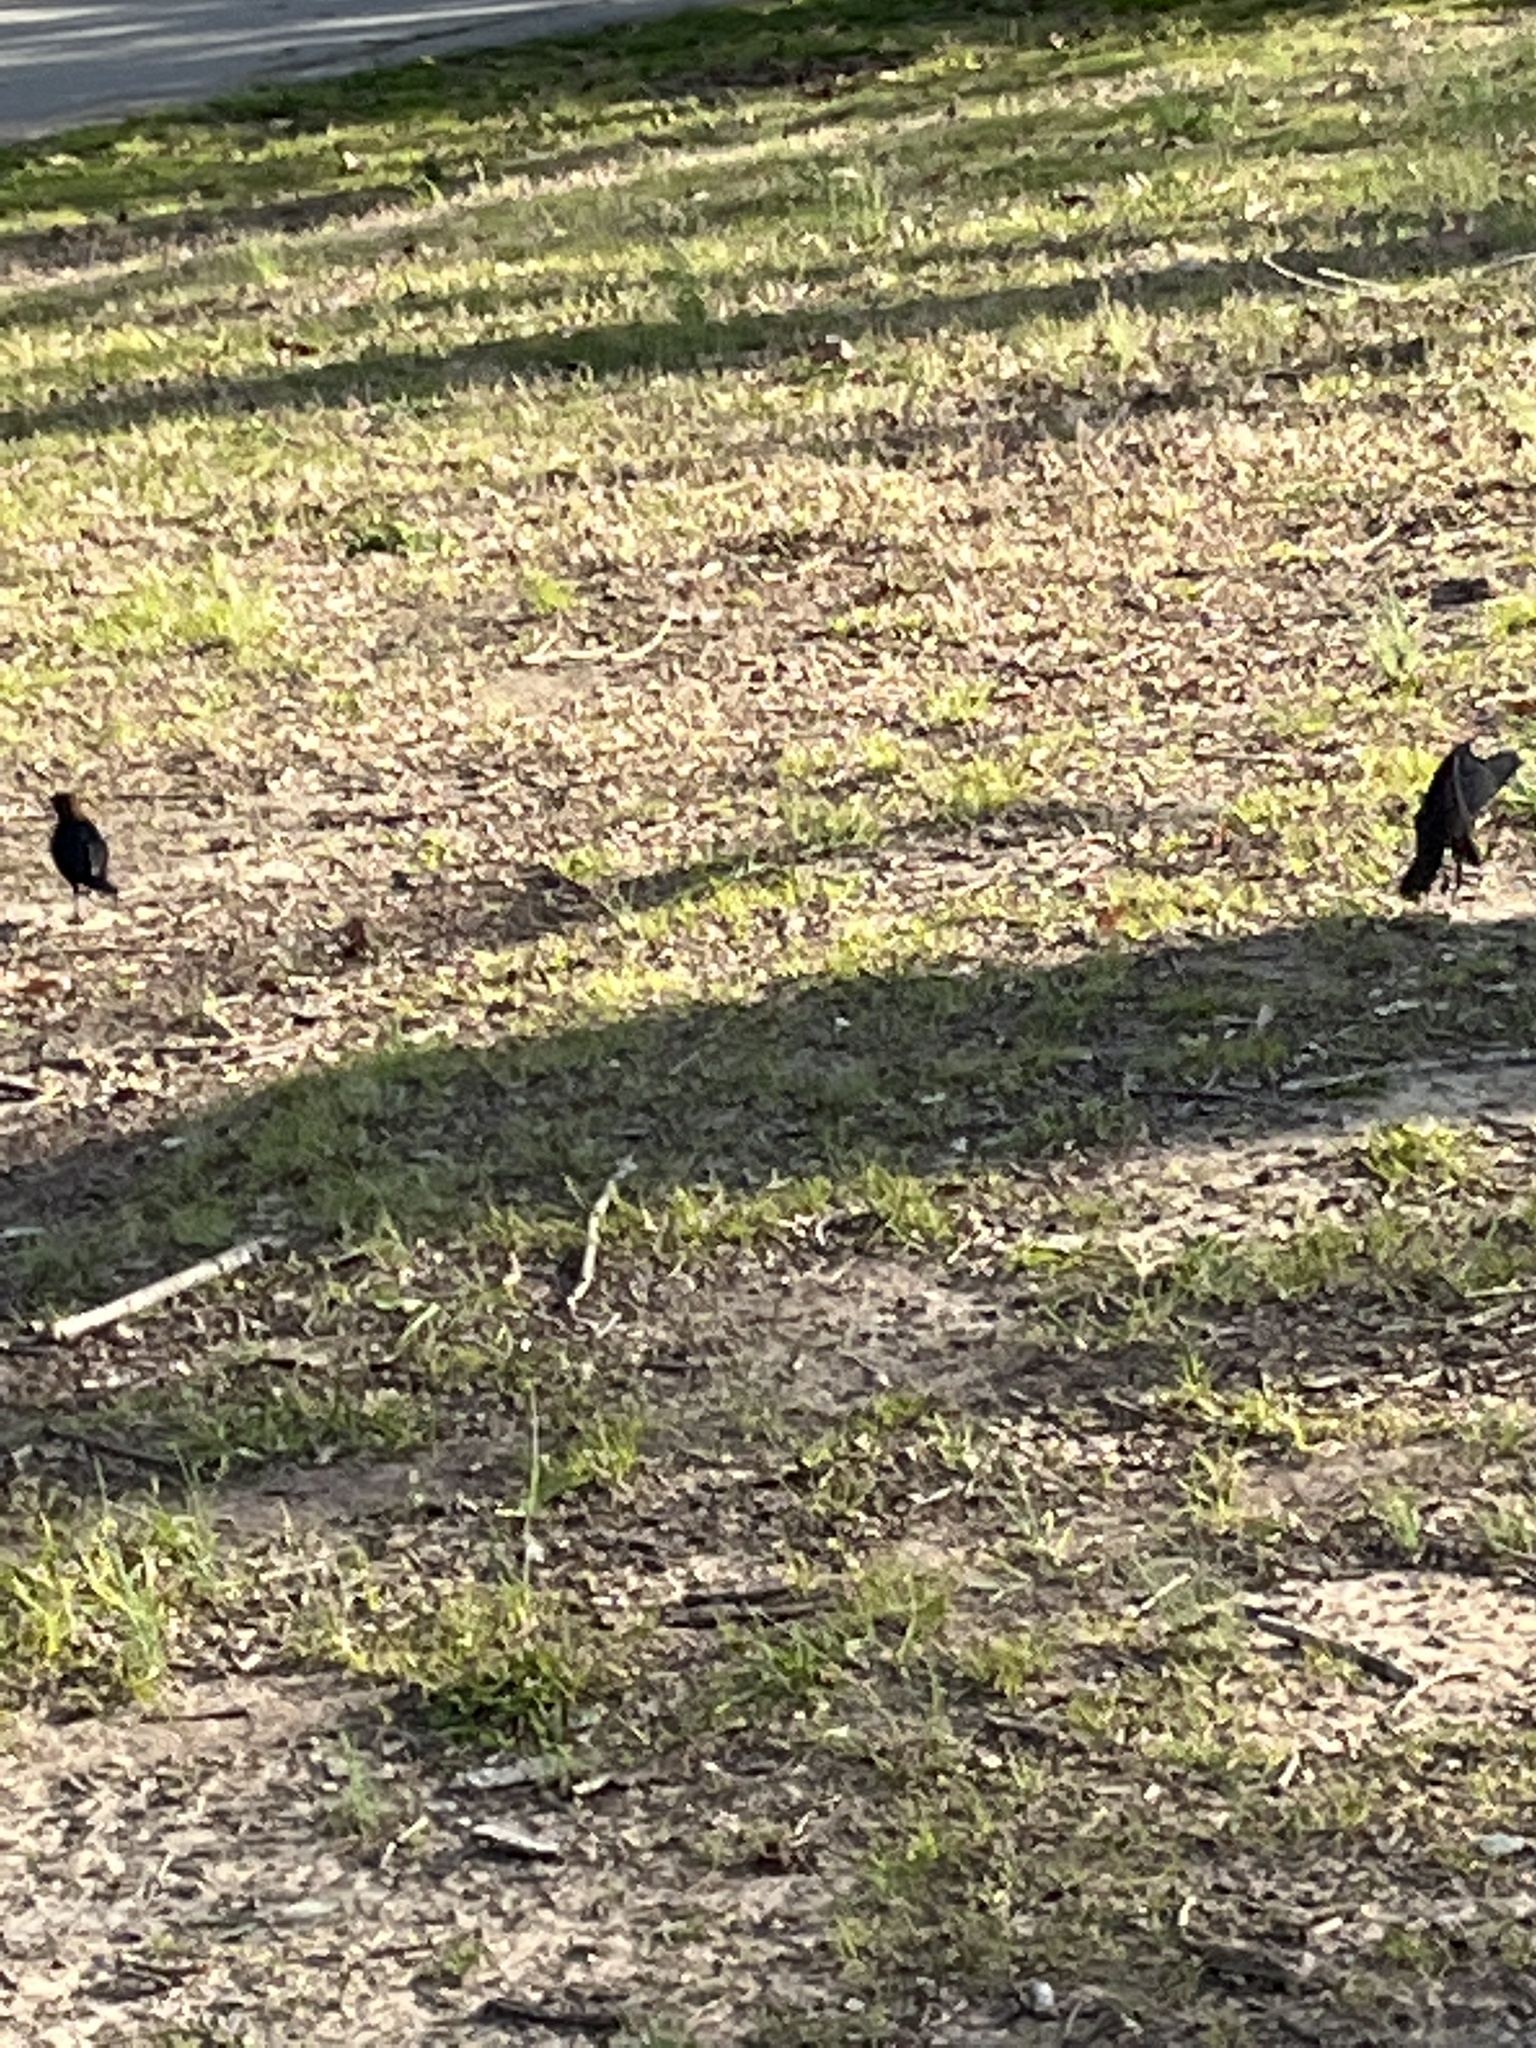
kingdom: Animalia
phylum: Chordata
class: Aves
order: Passeriformes
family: Icteridae
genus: Molothrus
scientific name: Molothrus ater
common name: Brown-headed cowbird
